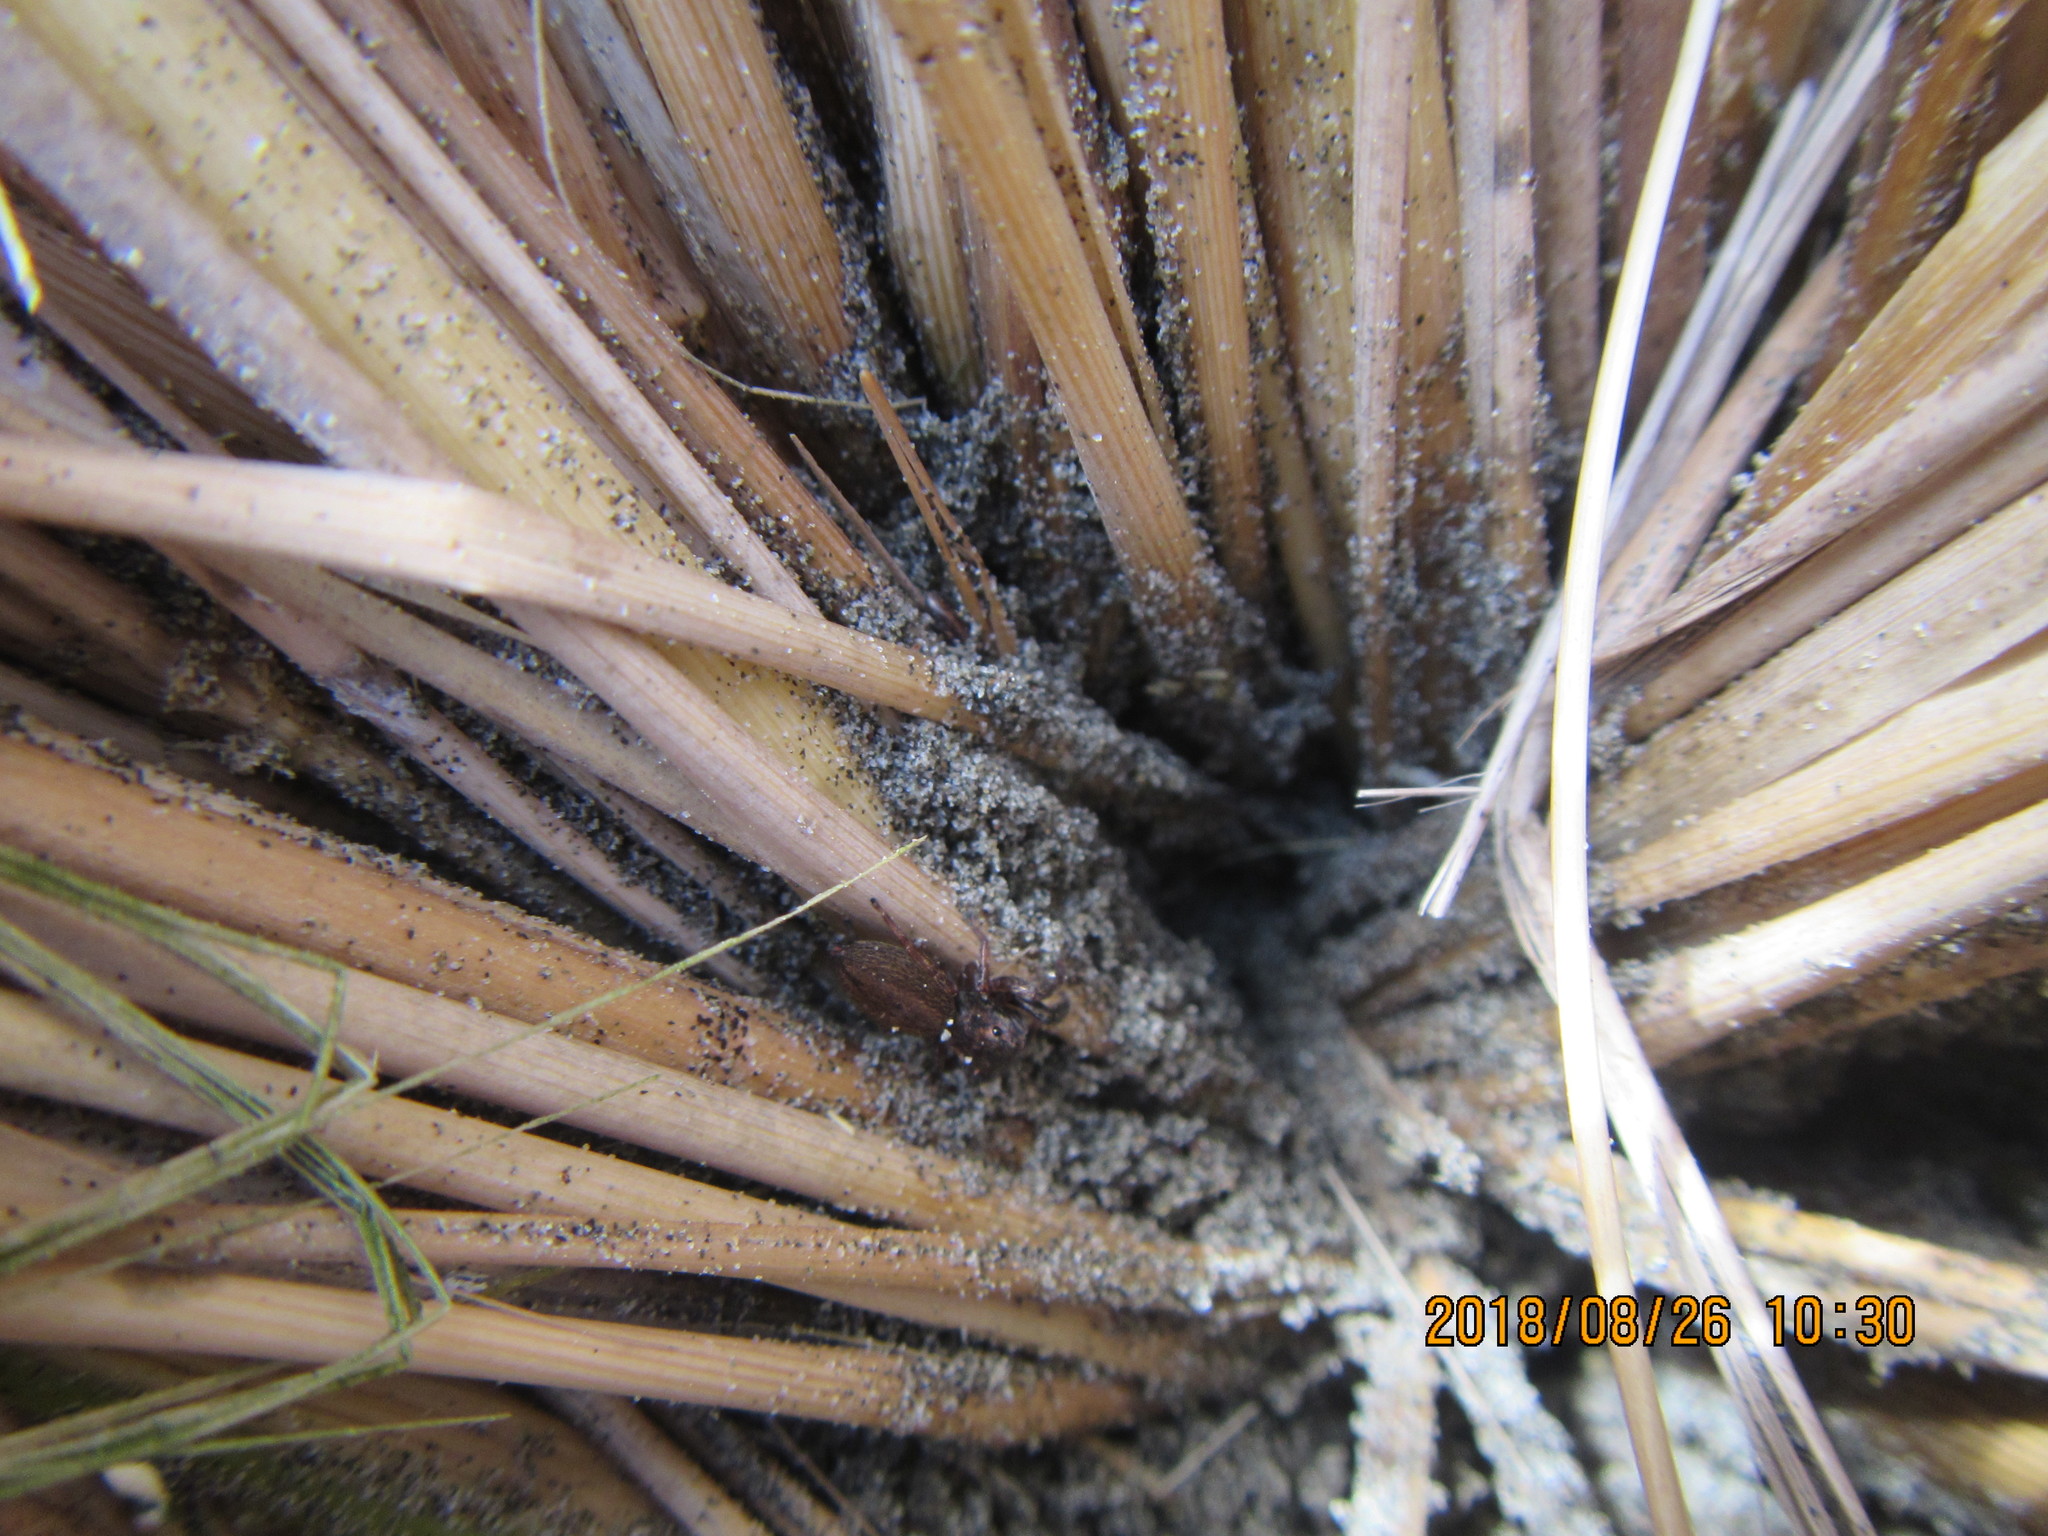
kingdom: Animalia
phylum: Arthropoda
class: Arachnida
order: Araneae
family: Salticidae
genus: Trite
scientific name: Trite auricoma
